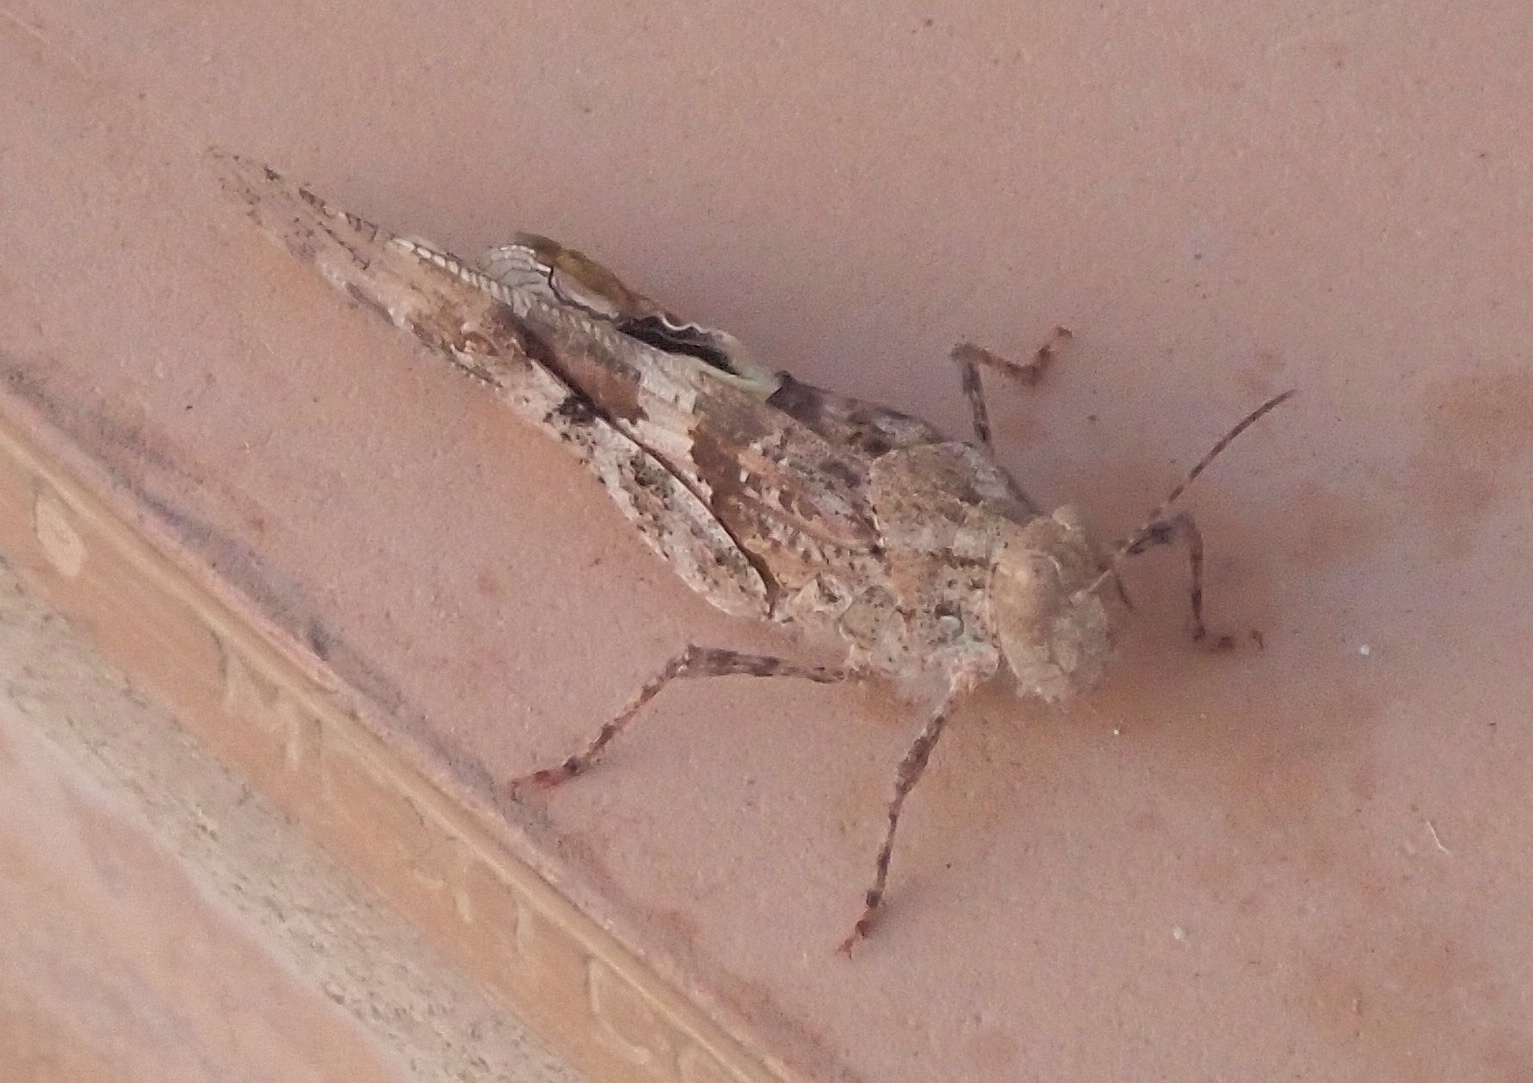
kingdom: Animalia
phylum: Arthropoda
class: Insecta
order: Orthoptera
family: Acrididae
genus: Trimerotropis
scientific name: Trimerotropis pallidipennis
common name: Pallid-winged grasshopper
